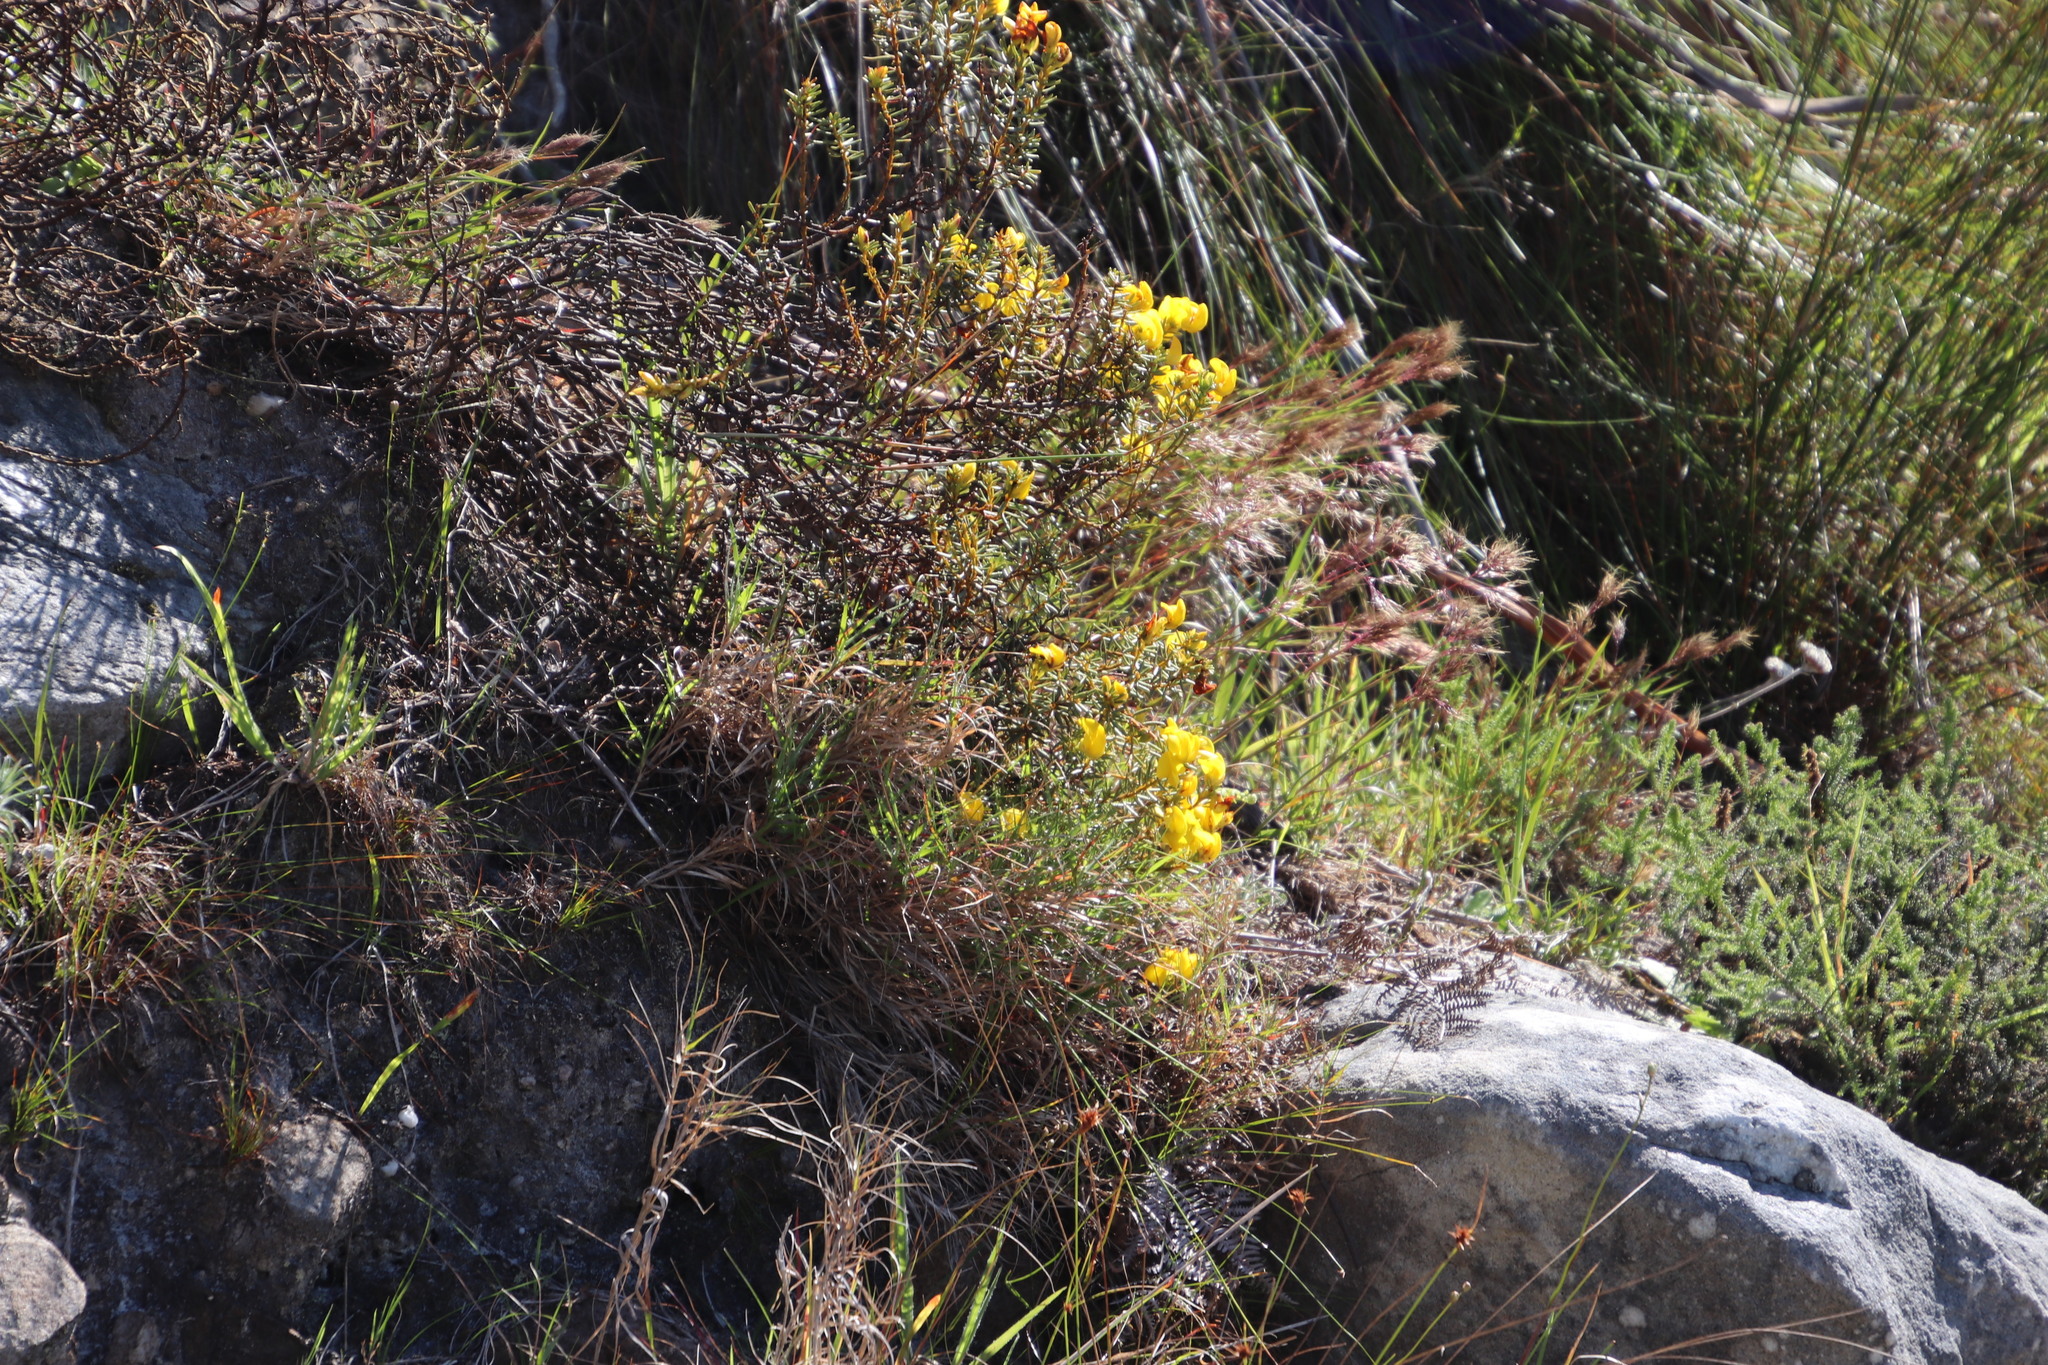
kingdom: Plantae
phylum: Tracheophyta
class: Magnoliopsida
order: Fabales
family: Fabaceae
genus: Cyclopia
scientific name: Cyclopia genistoides
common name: Honeybush tea
